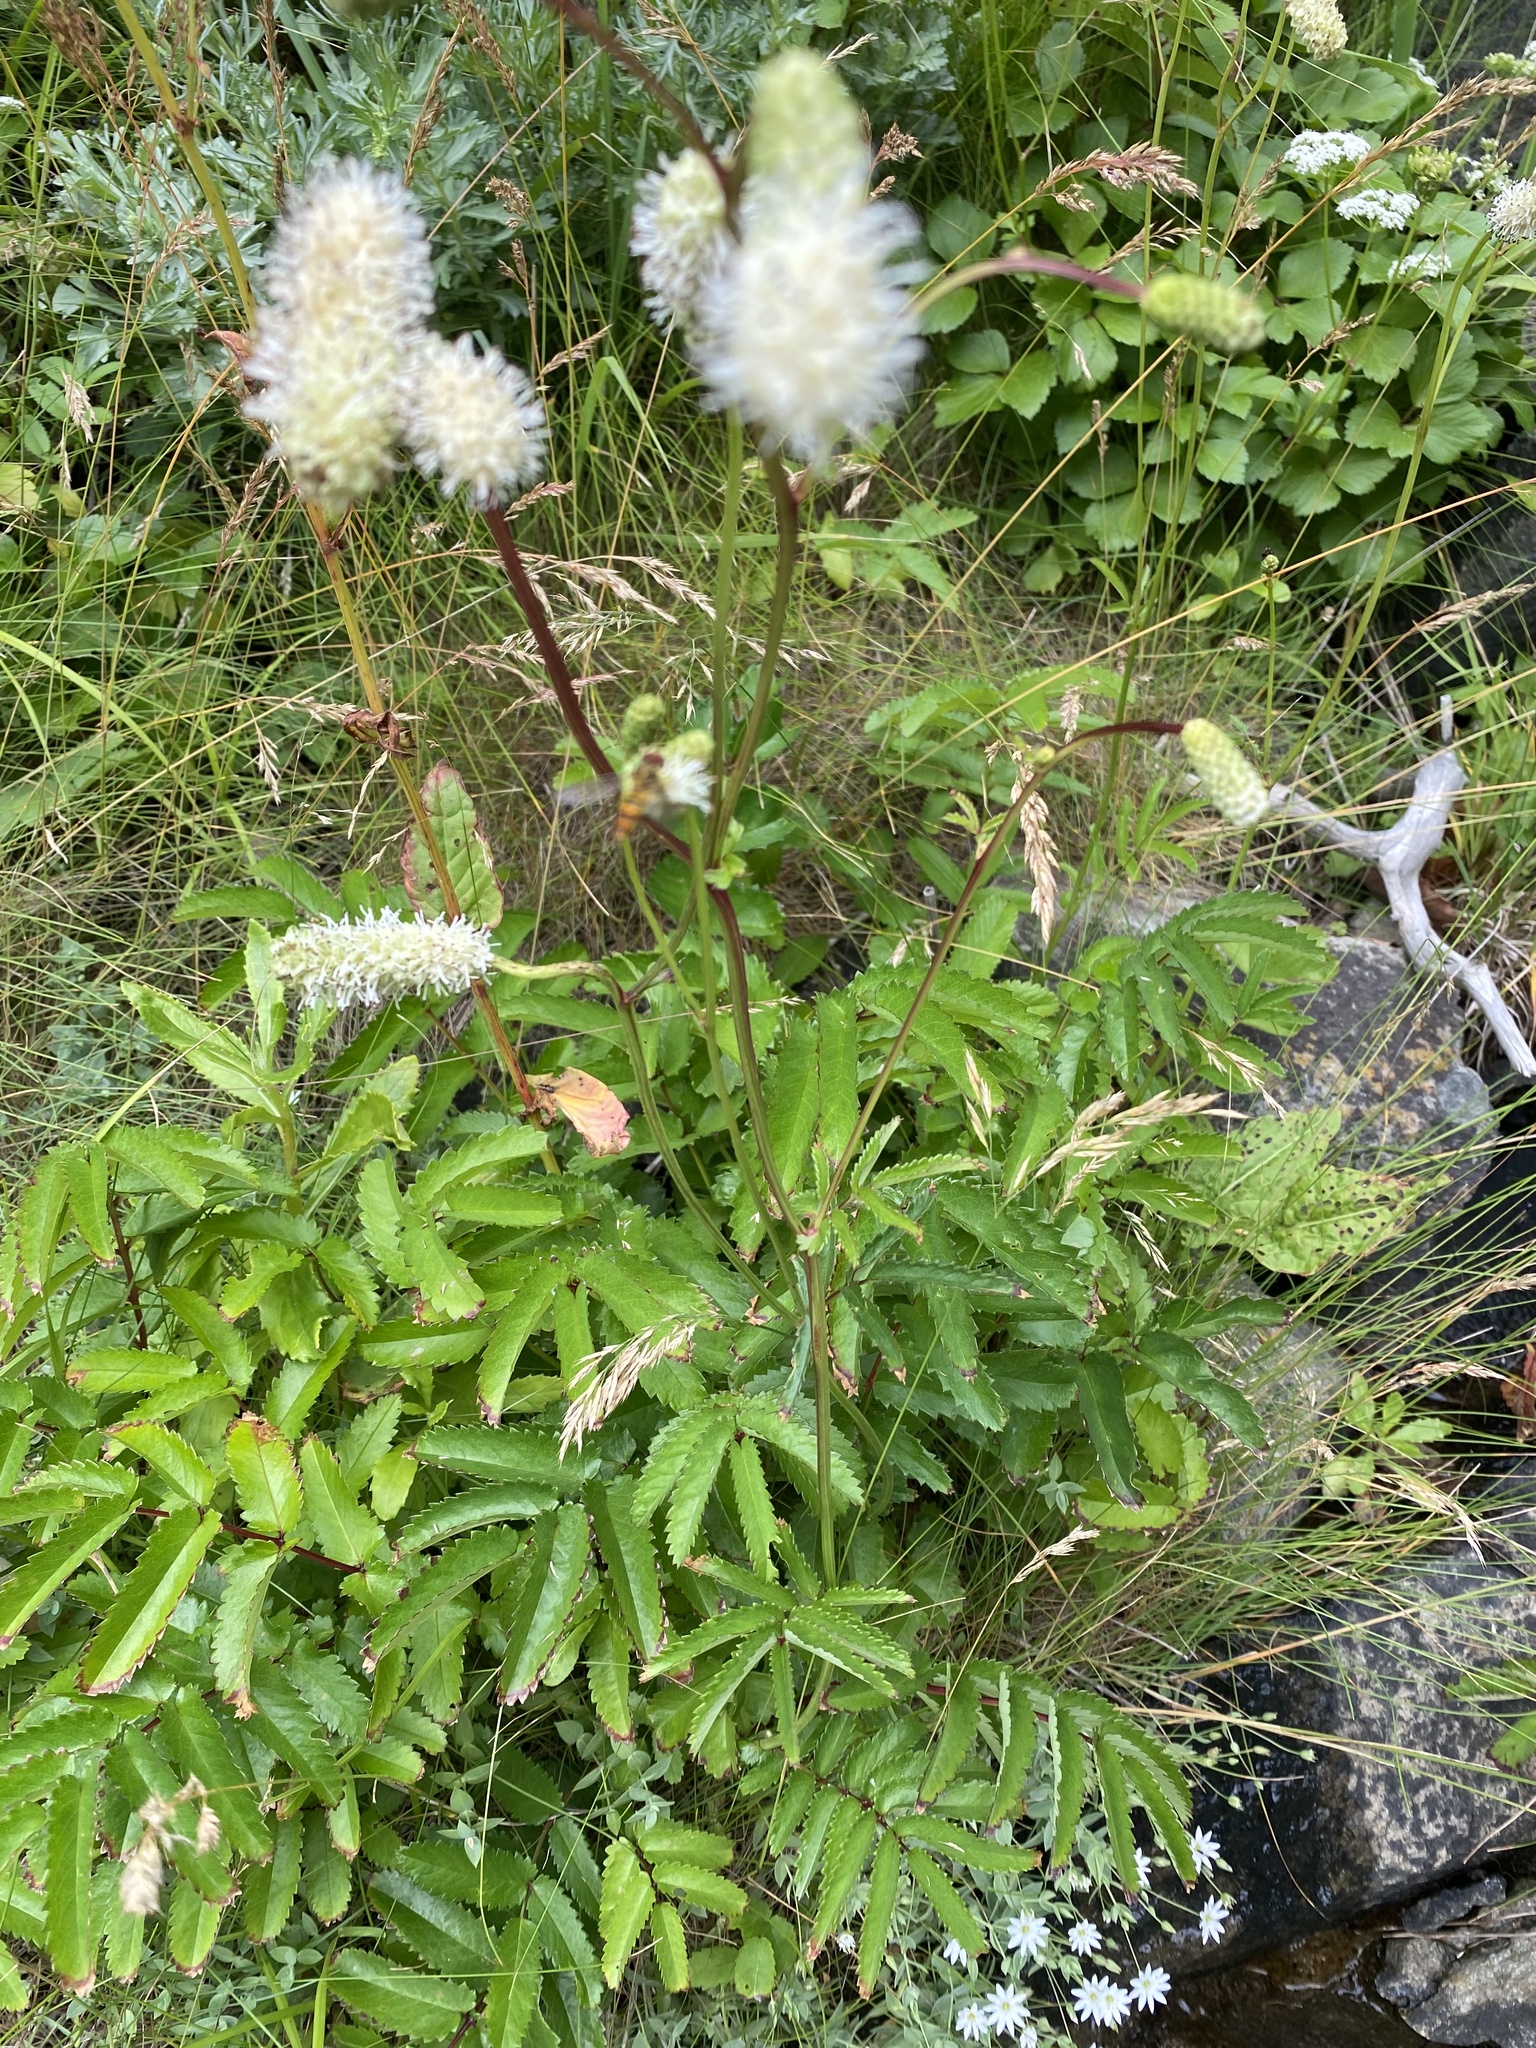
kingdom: Plantae
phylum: Tracheophyta
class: Magnoliopsida
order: Rosales
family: Rosaceae
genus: Poterium
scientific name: Poterium tenuifolium
